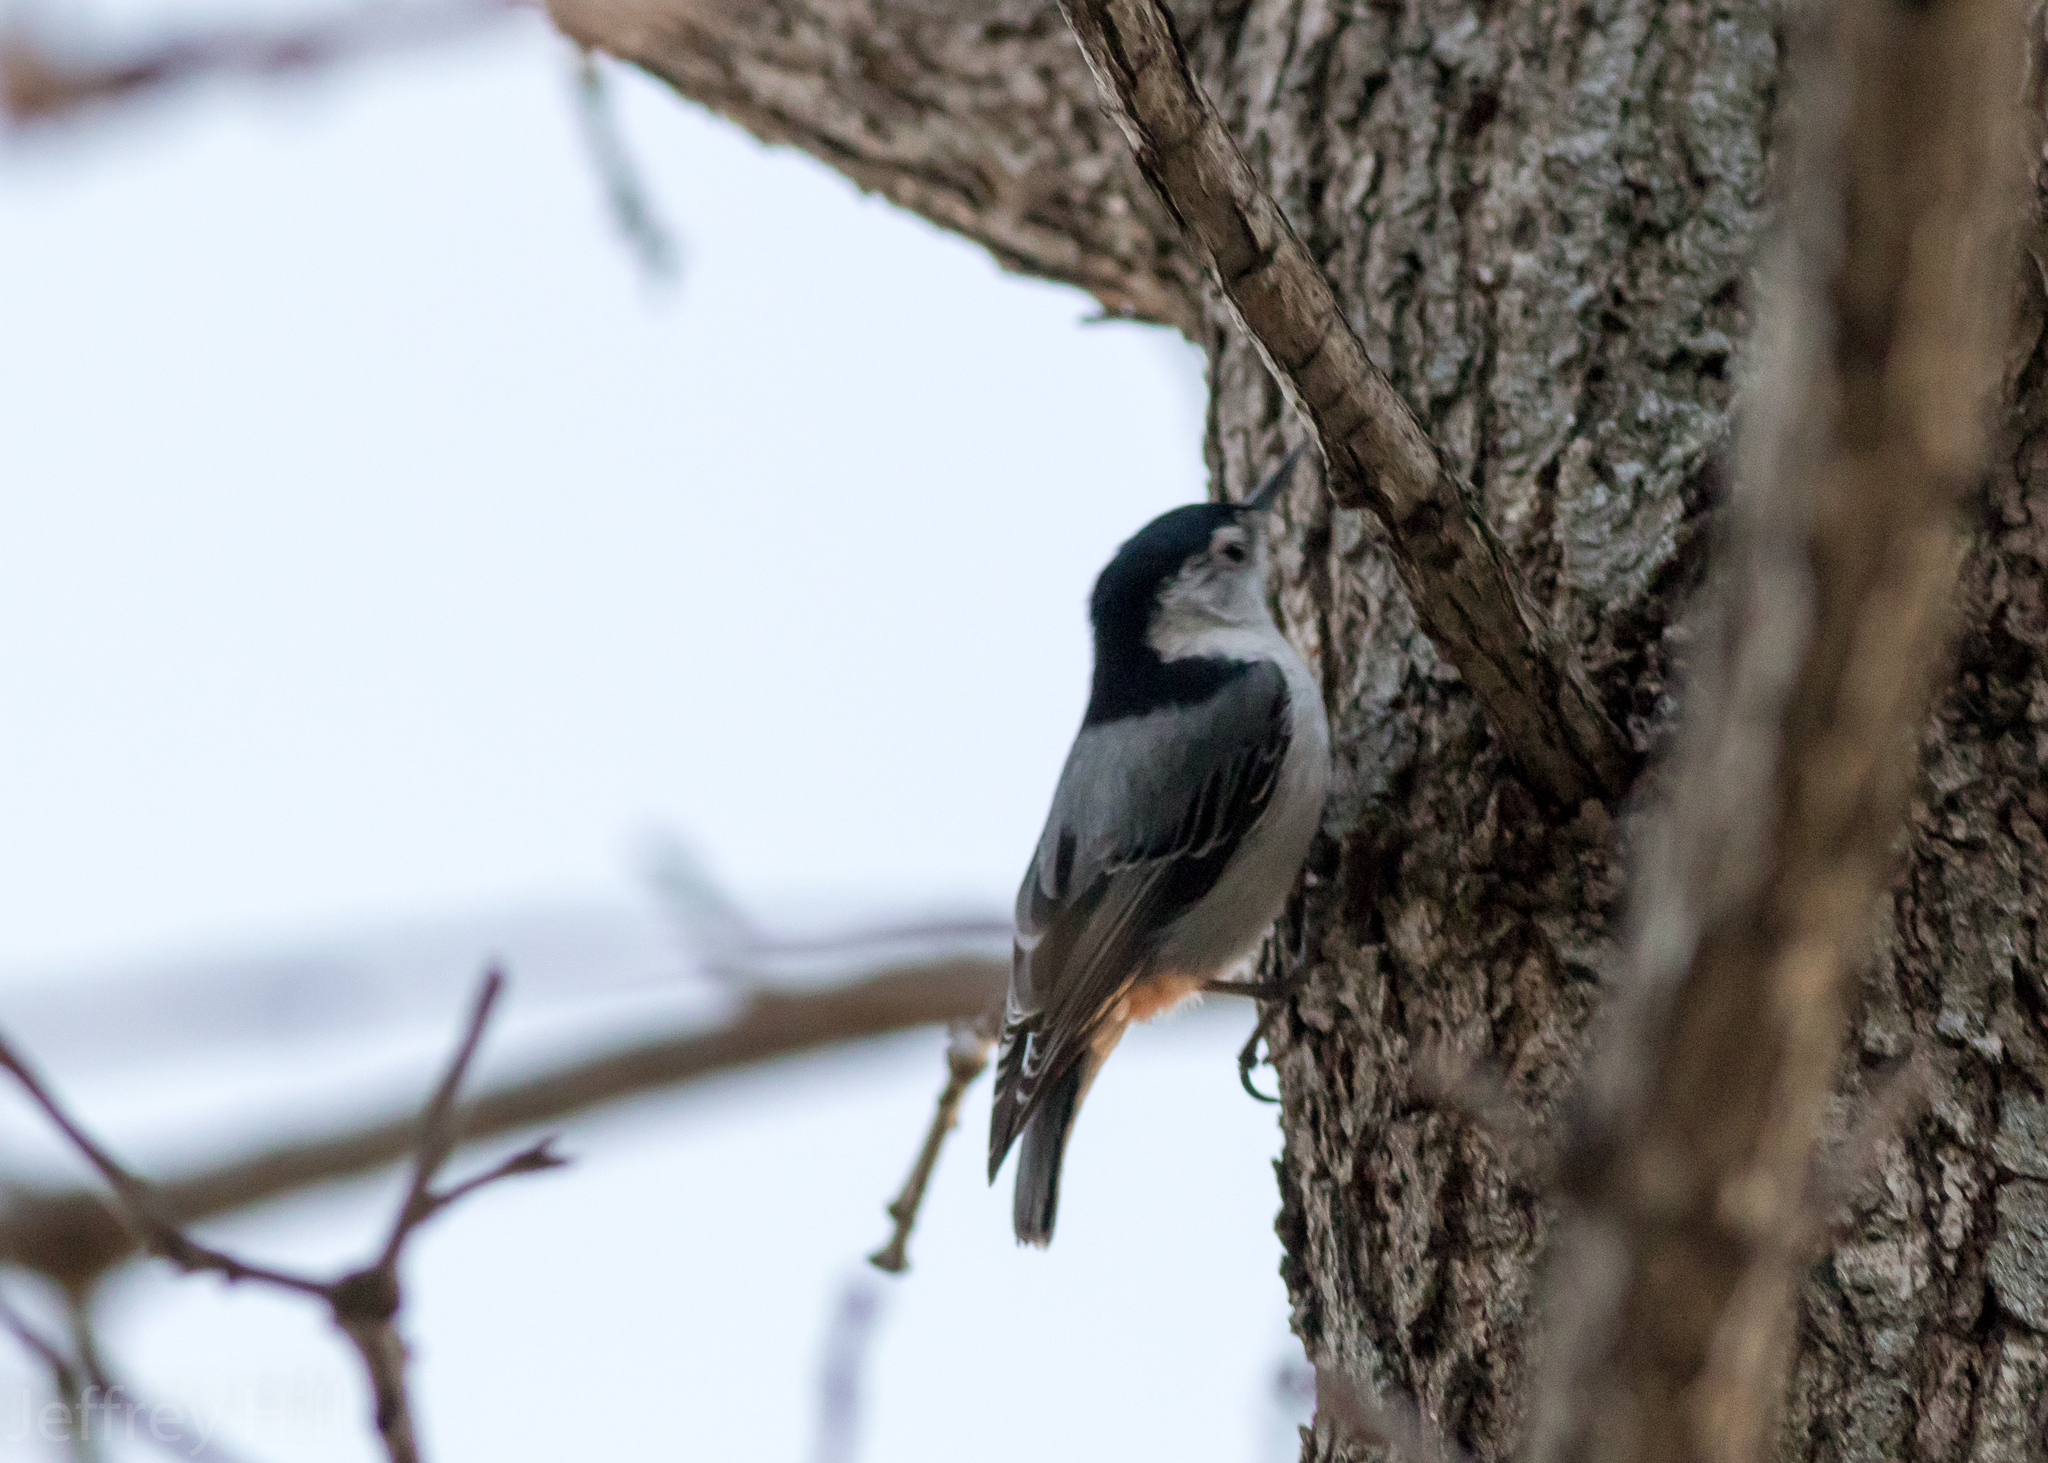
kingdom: Animalia
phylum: Chordata
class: Aves
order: Passeriformes
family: Sittidae
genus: Sitta
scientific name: Sitta carolinensis
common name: White-breasted nuthatch
